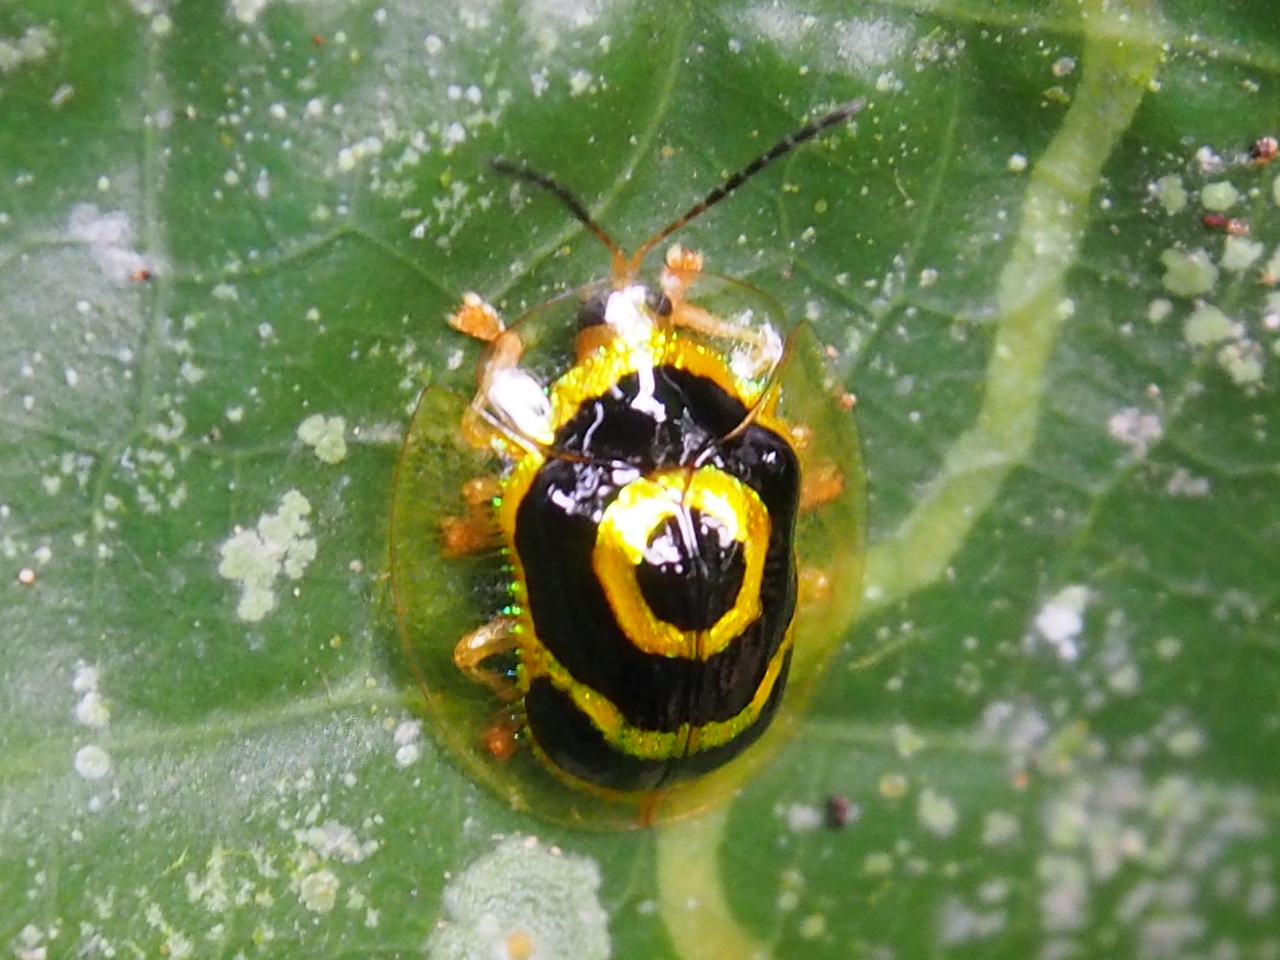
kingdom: Animalia
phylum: Arthropoda
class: Insecta
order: Coleoptera
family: Chrysomelidae
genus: Ischnocodia
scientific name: Ischnocodia annulus
